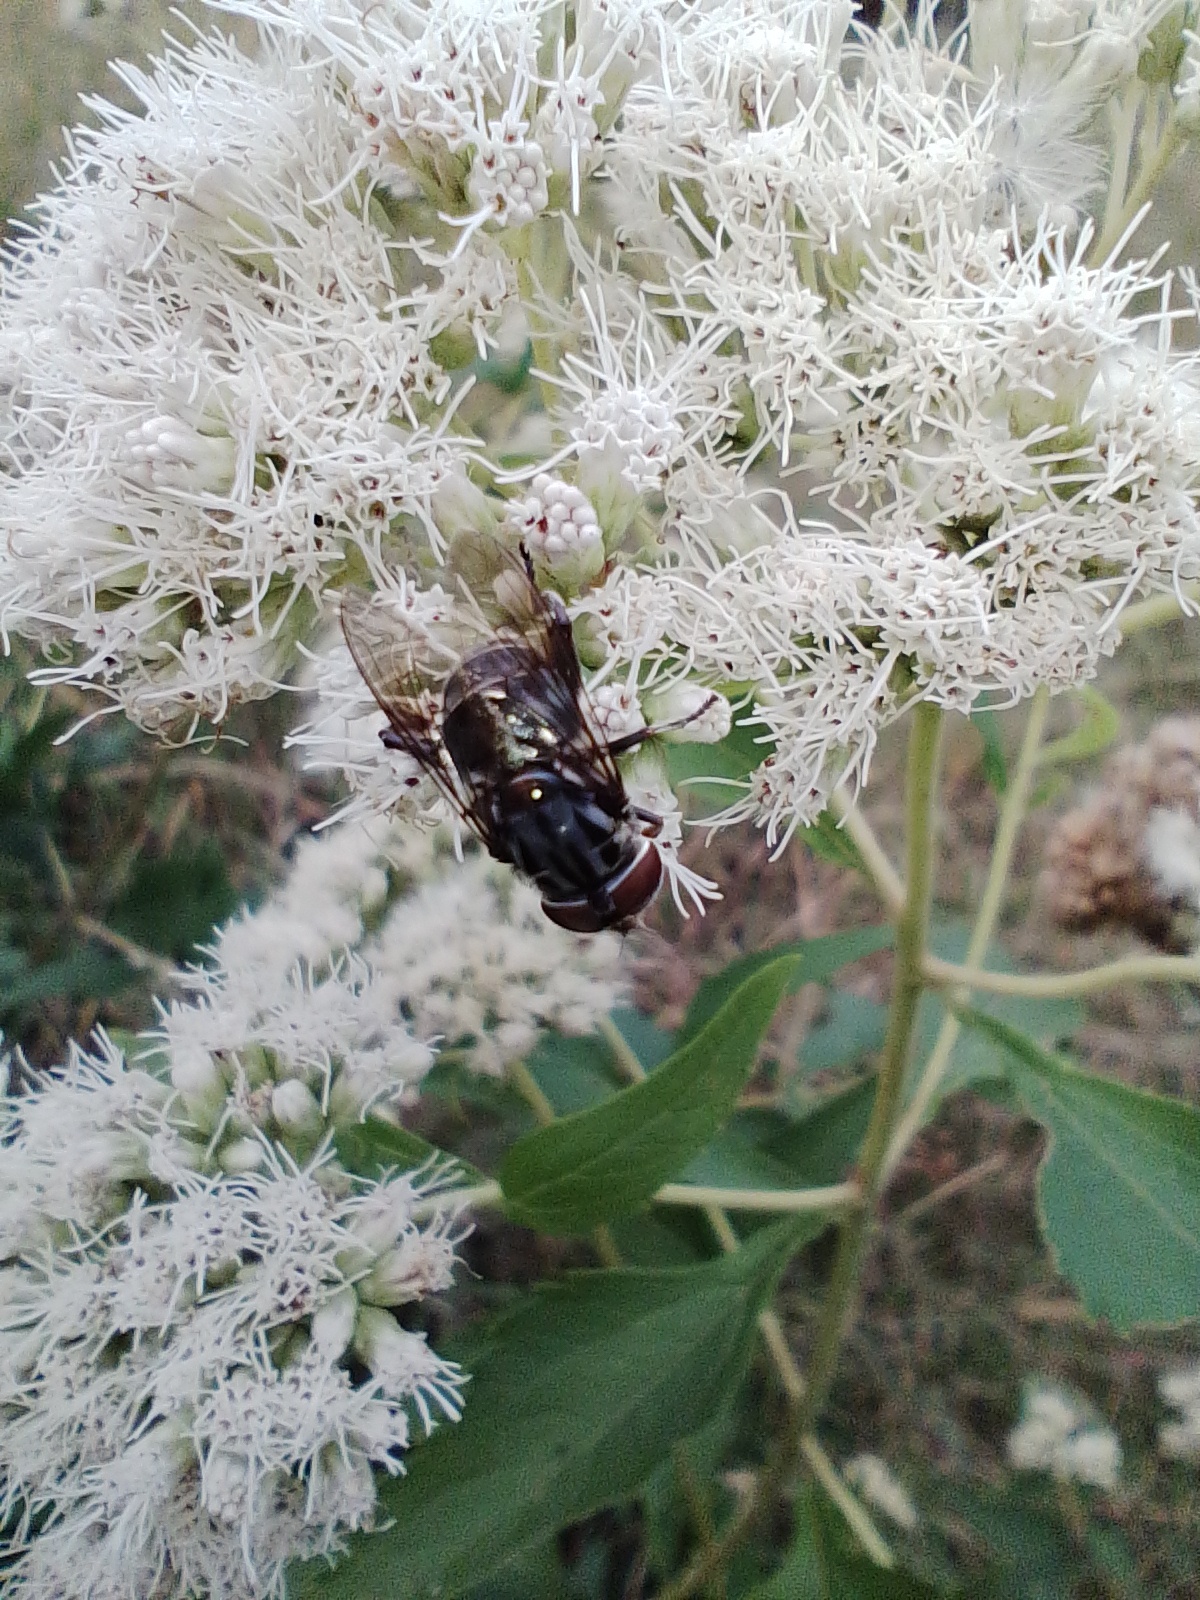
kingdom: Animalia
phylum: Arthropoda
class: Insecta
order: Diptera
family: Syrphidae
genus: Palpada
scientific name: Palpada furcata
